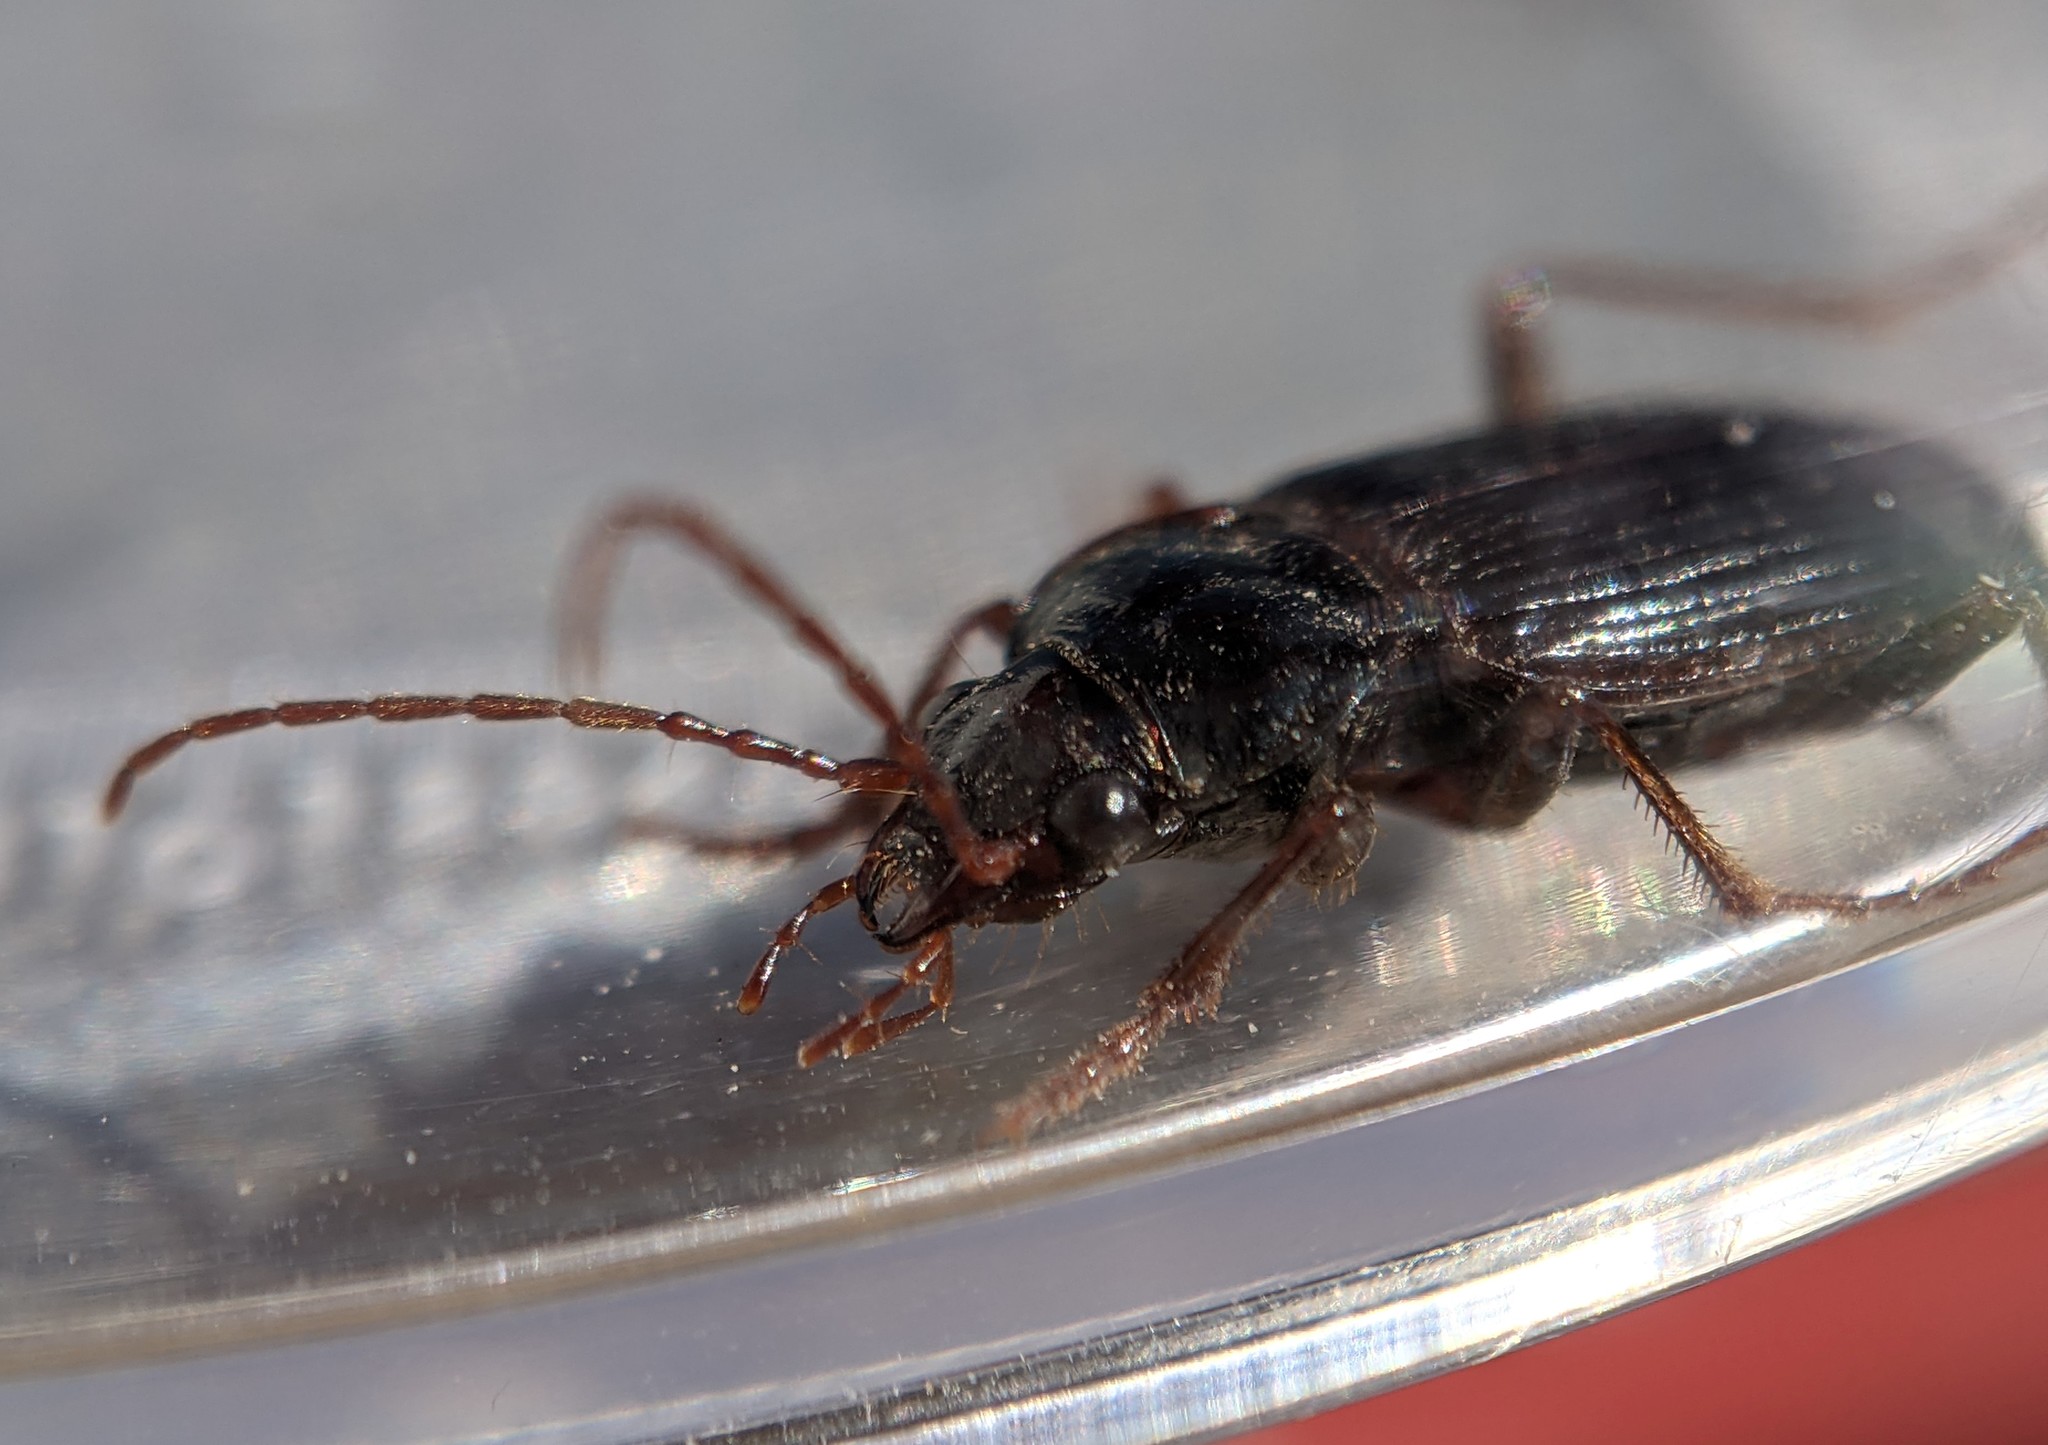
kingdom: Animalia
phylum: Arthropoda
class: Insecta
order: Coleoptera
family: Carabidae
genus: Nebria
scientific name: Nebria brevicollis
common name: Short-necked gazelle beetle
